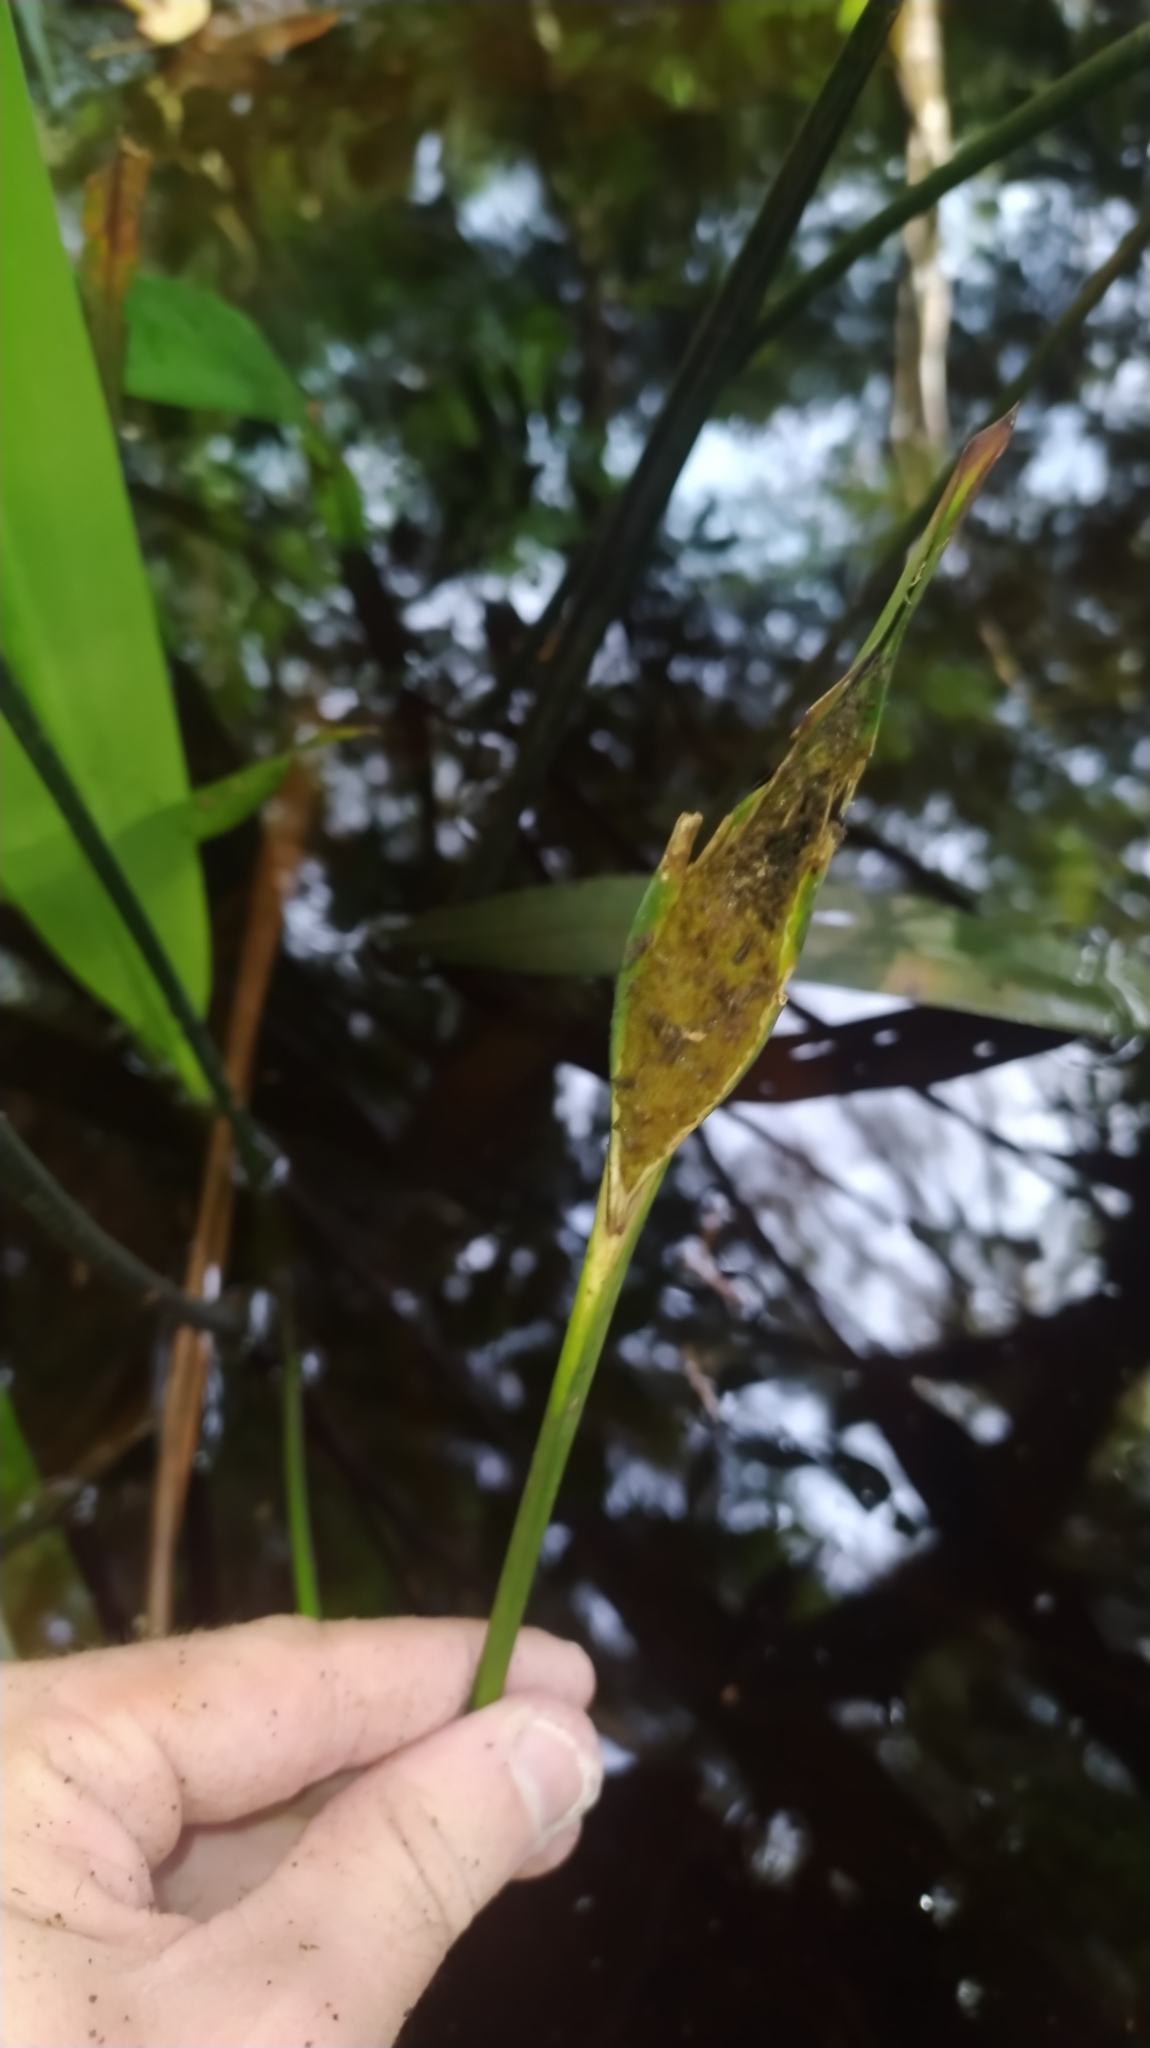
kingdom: Plantae
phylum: Tracheophyta
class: Liliopsida
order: Poales
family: Rapateaceae
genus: Spathanthus
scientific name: Spathanthus unilateralis
